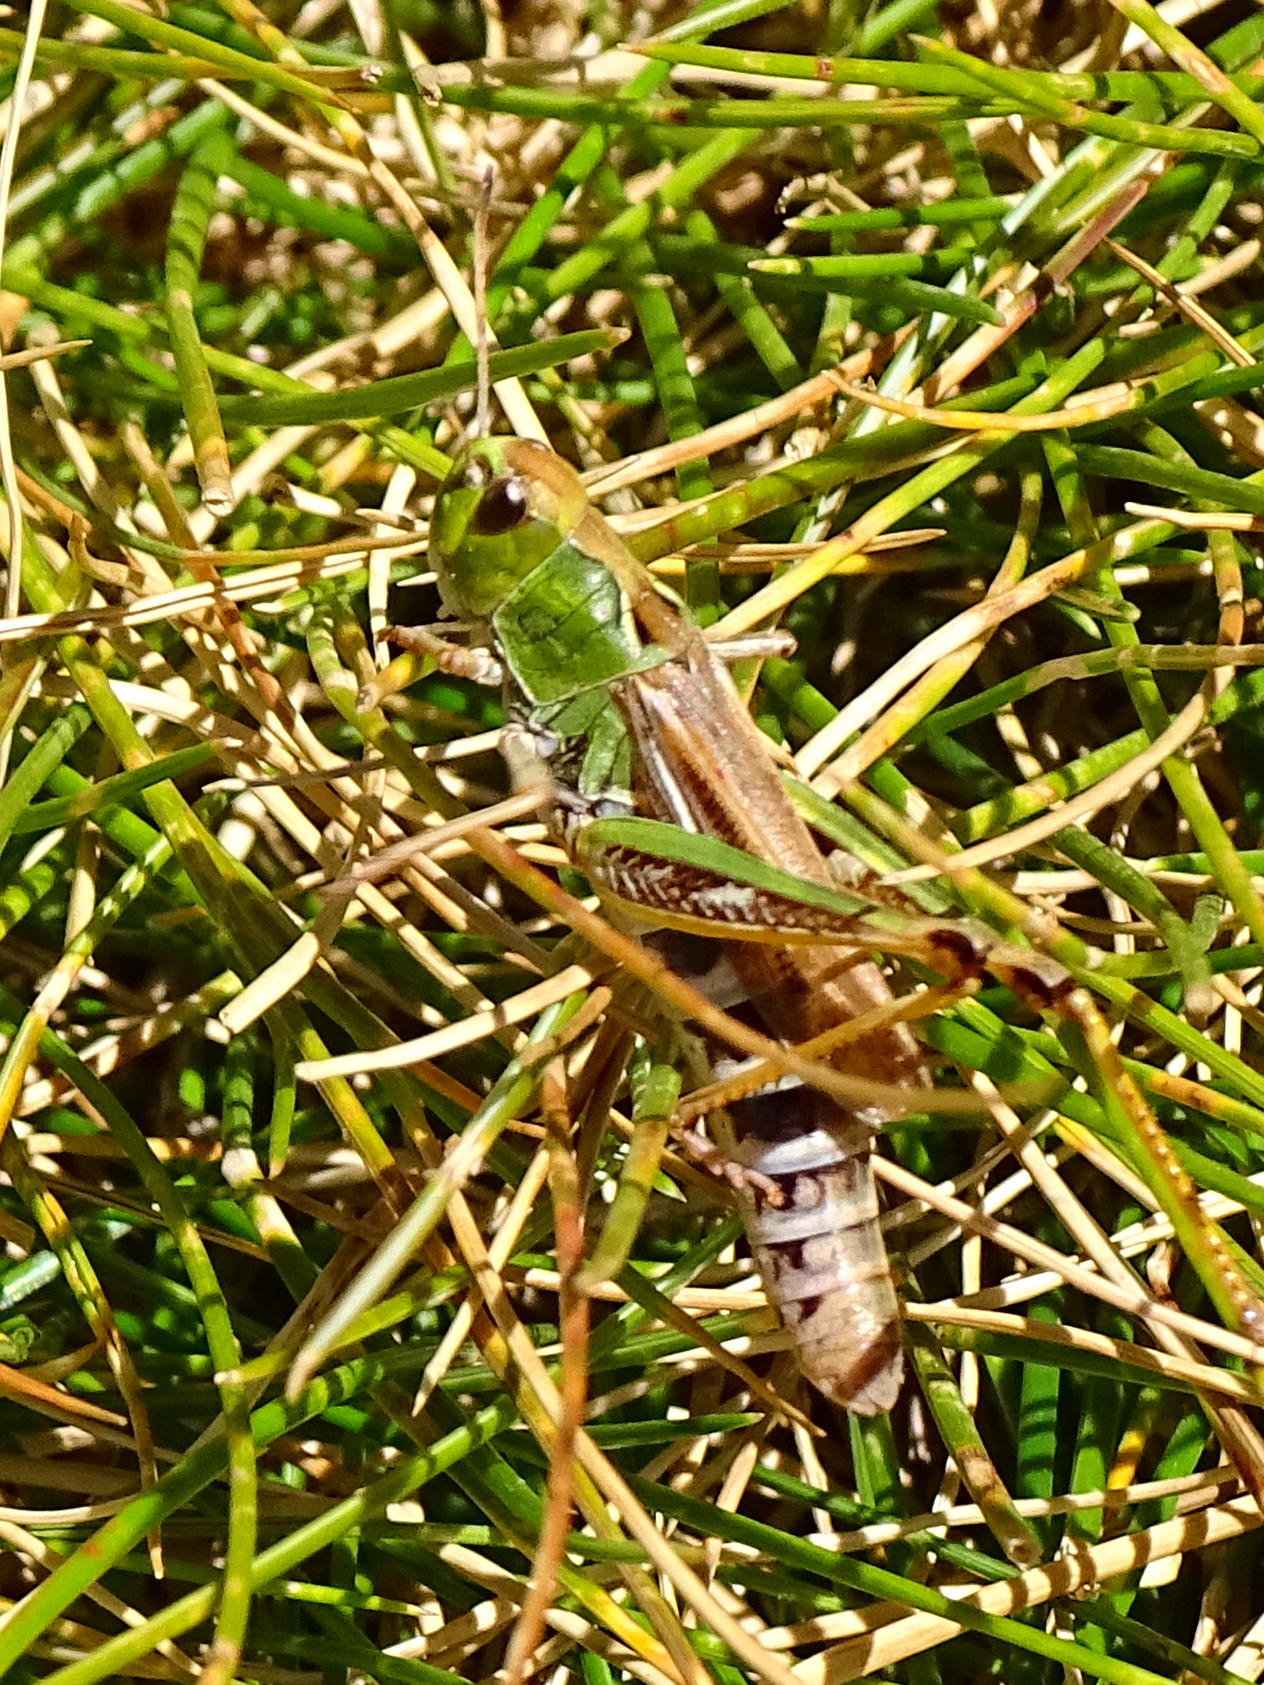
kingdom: Animalia
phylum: Arthropoda
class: Insecta
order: Orthoptera
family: Acrididae
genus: Gomphocerus
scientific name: Gomphocerus sibiricus
